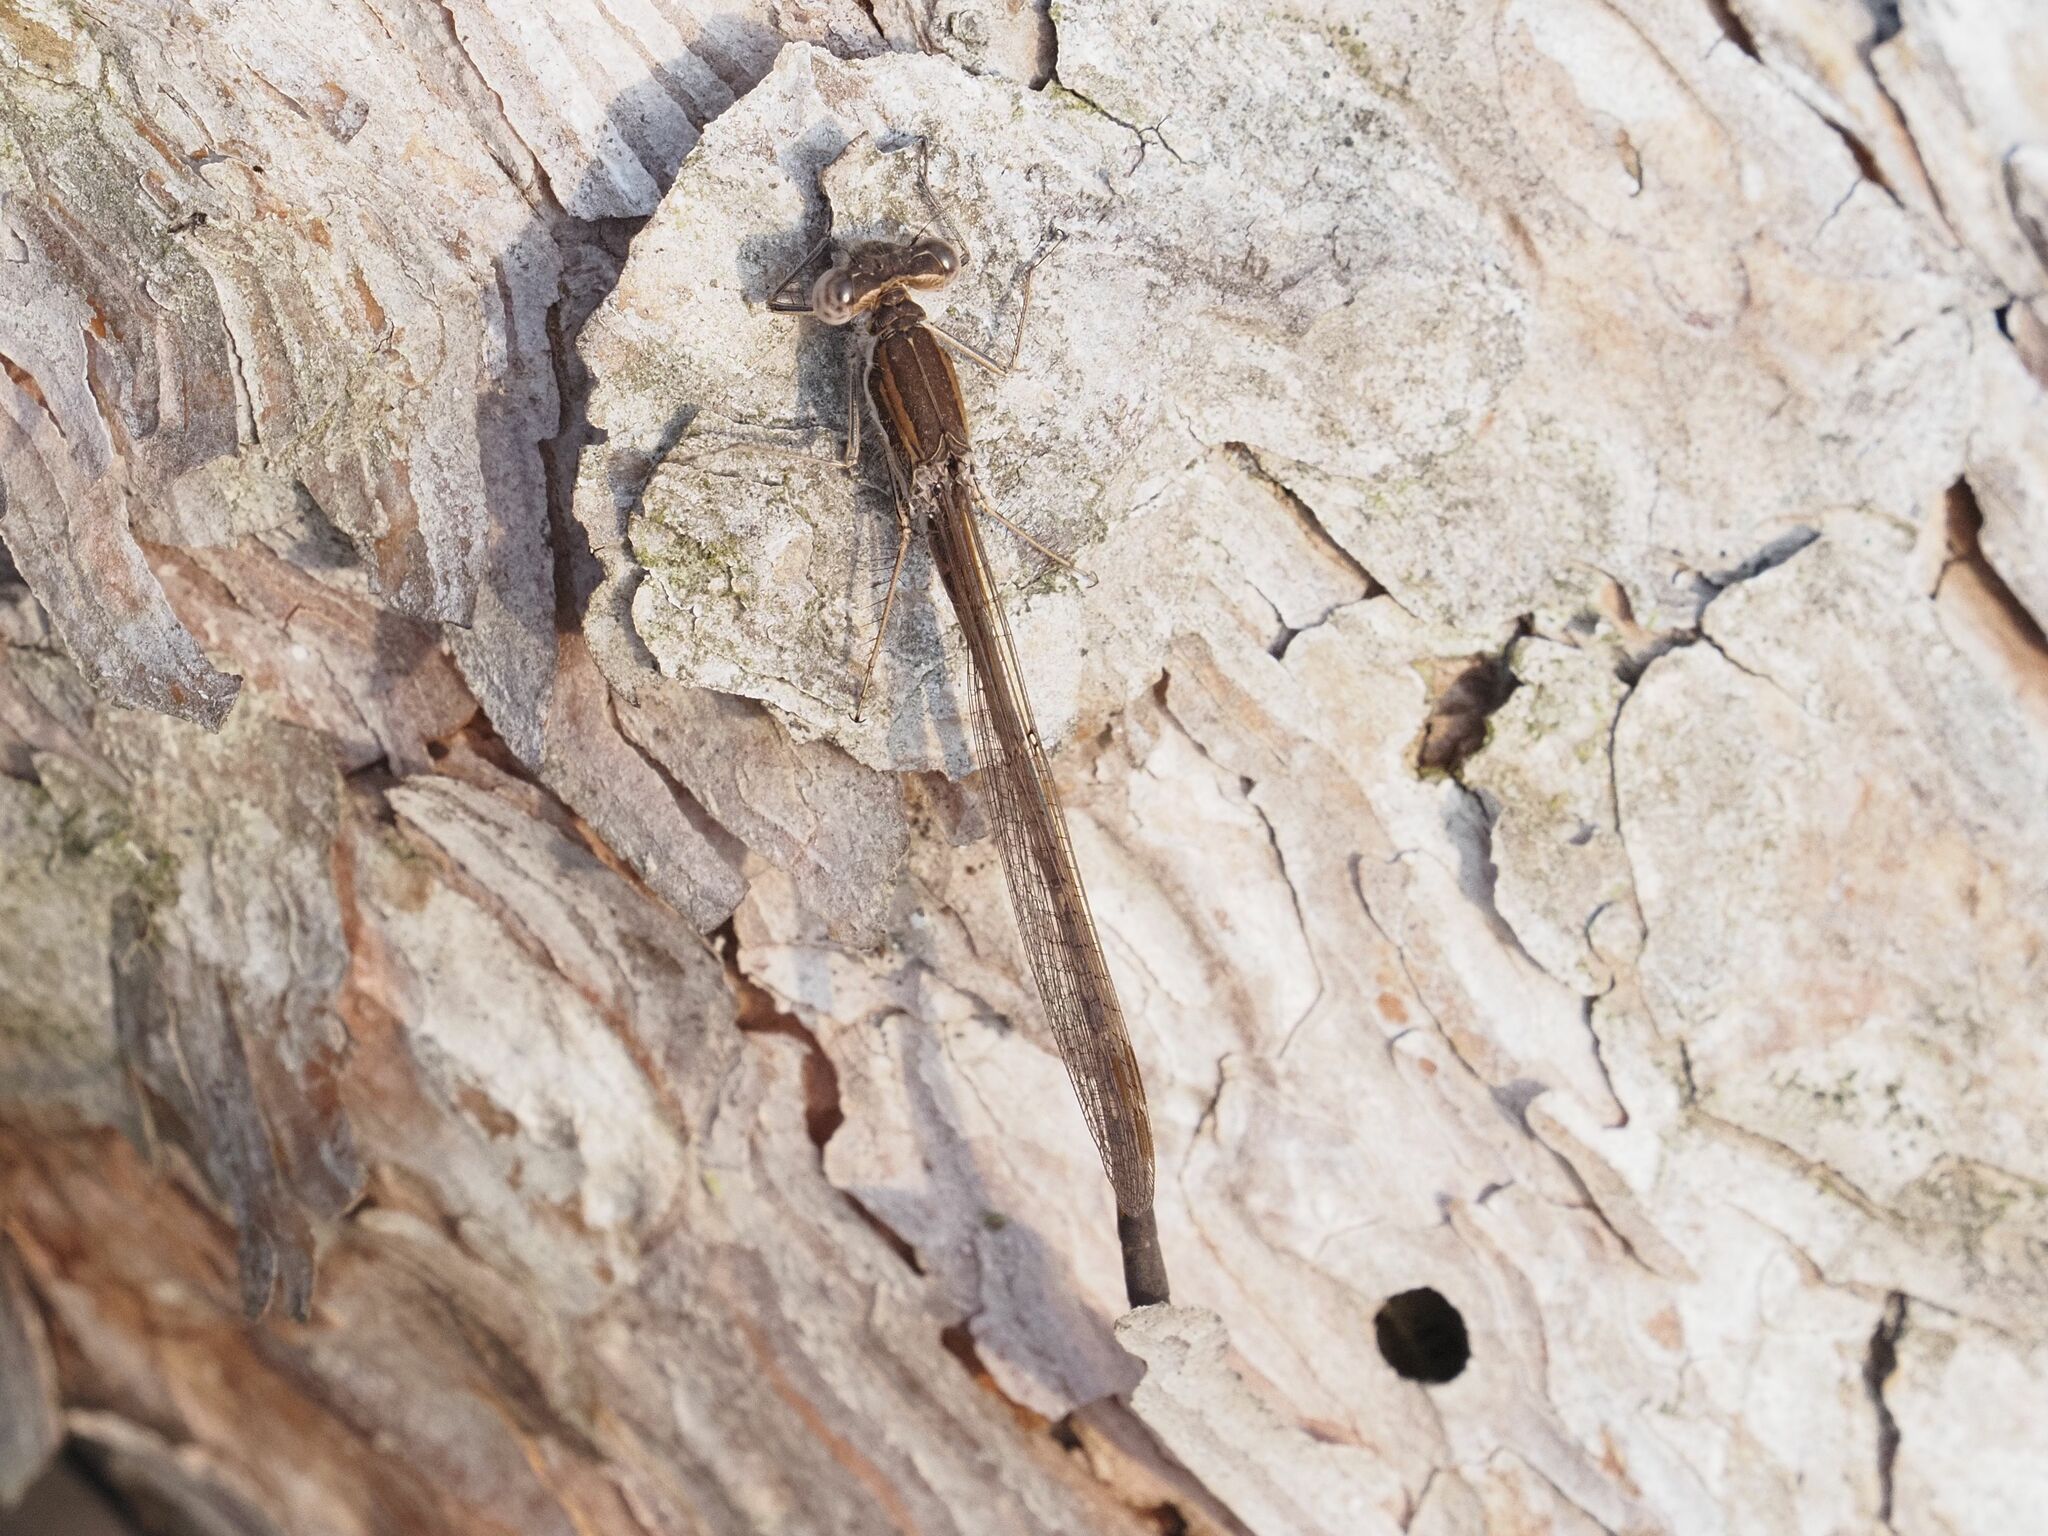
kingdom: Animalia
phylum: Arthropoda
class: Insecta
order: Odonata
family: Lestidae
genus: Sympecma
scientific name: Sympecma fusca
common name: Common winter damsel
